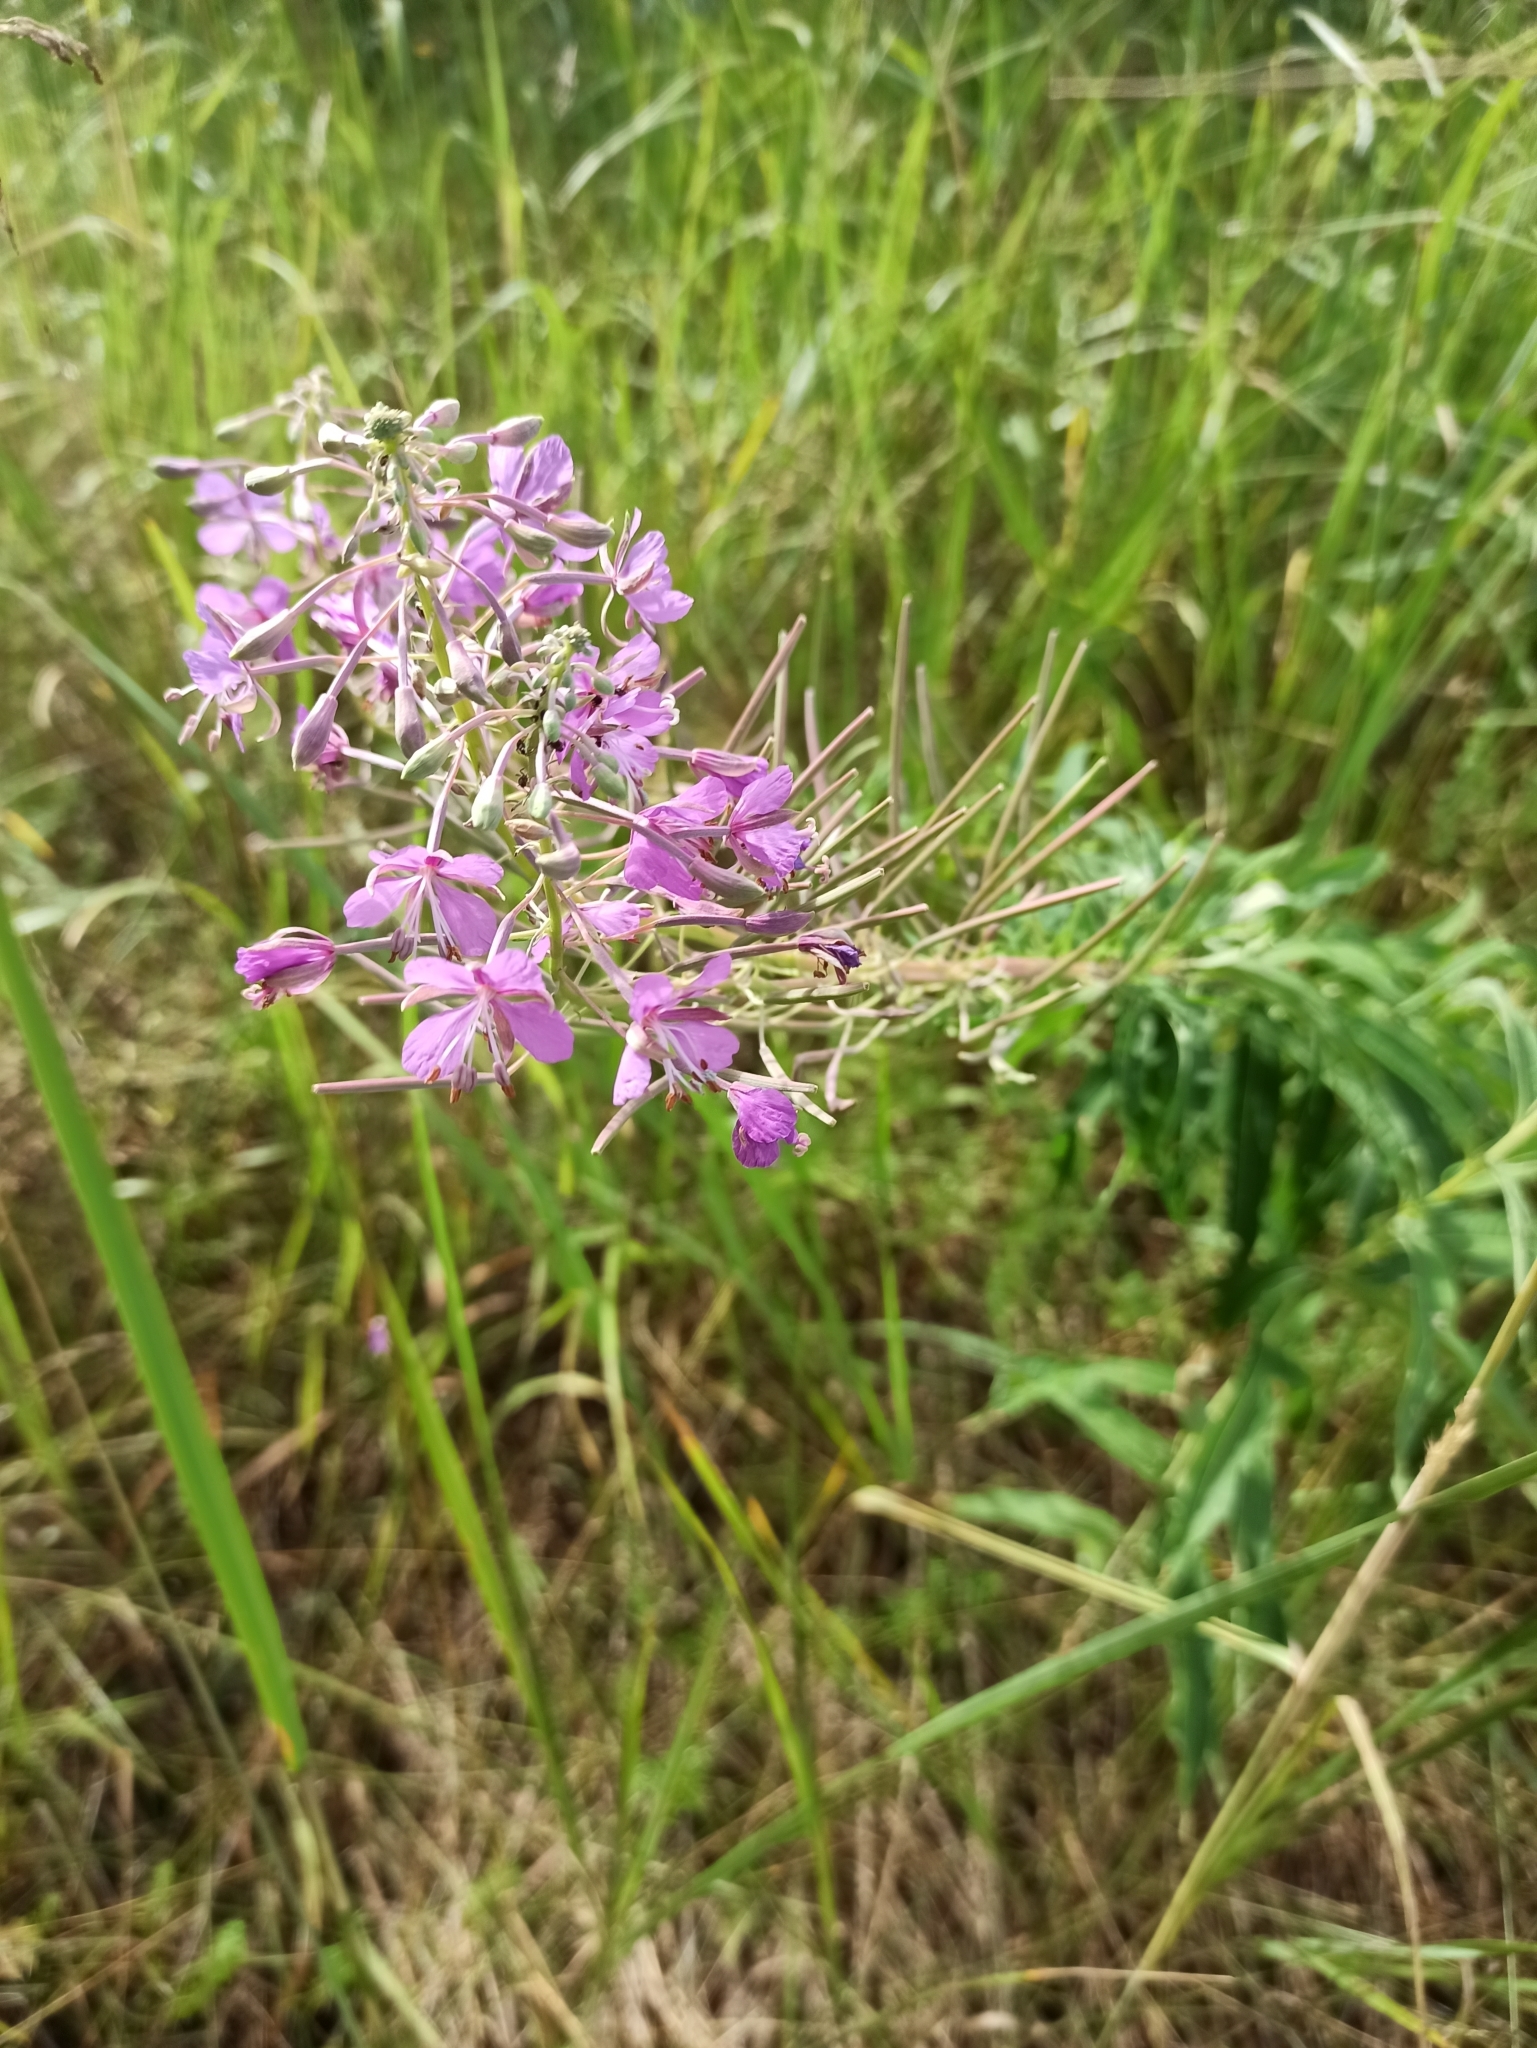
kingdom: Plantae
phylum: Tracheophyta
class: Magnoliopsida
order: Myrtales
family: Onagraceae
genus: Chamaenerion
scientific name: Chamaenerion angustifolium
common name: Fireweed
